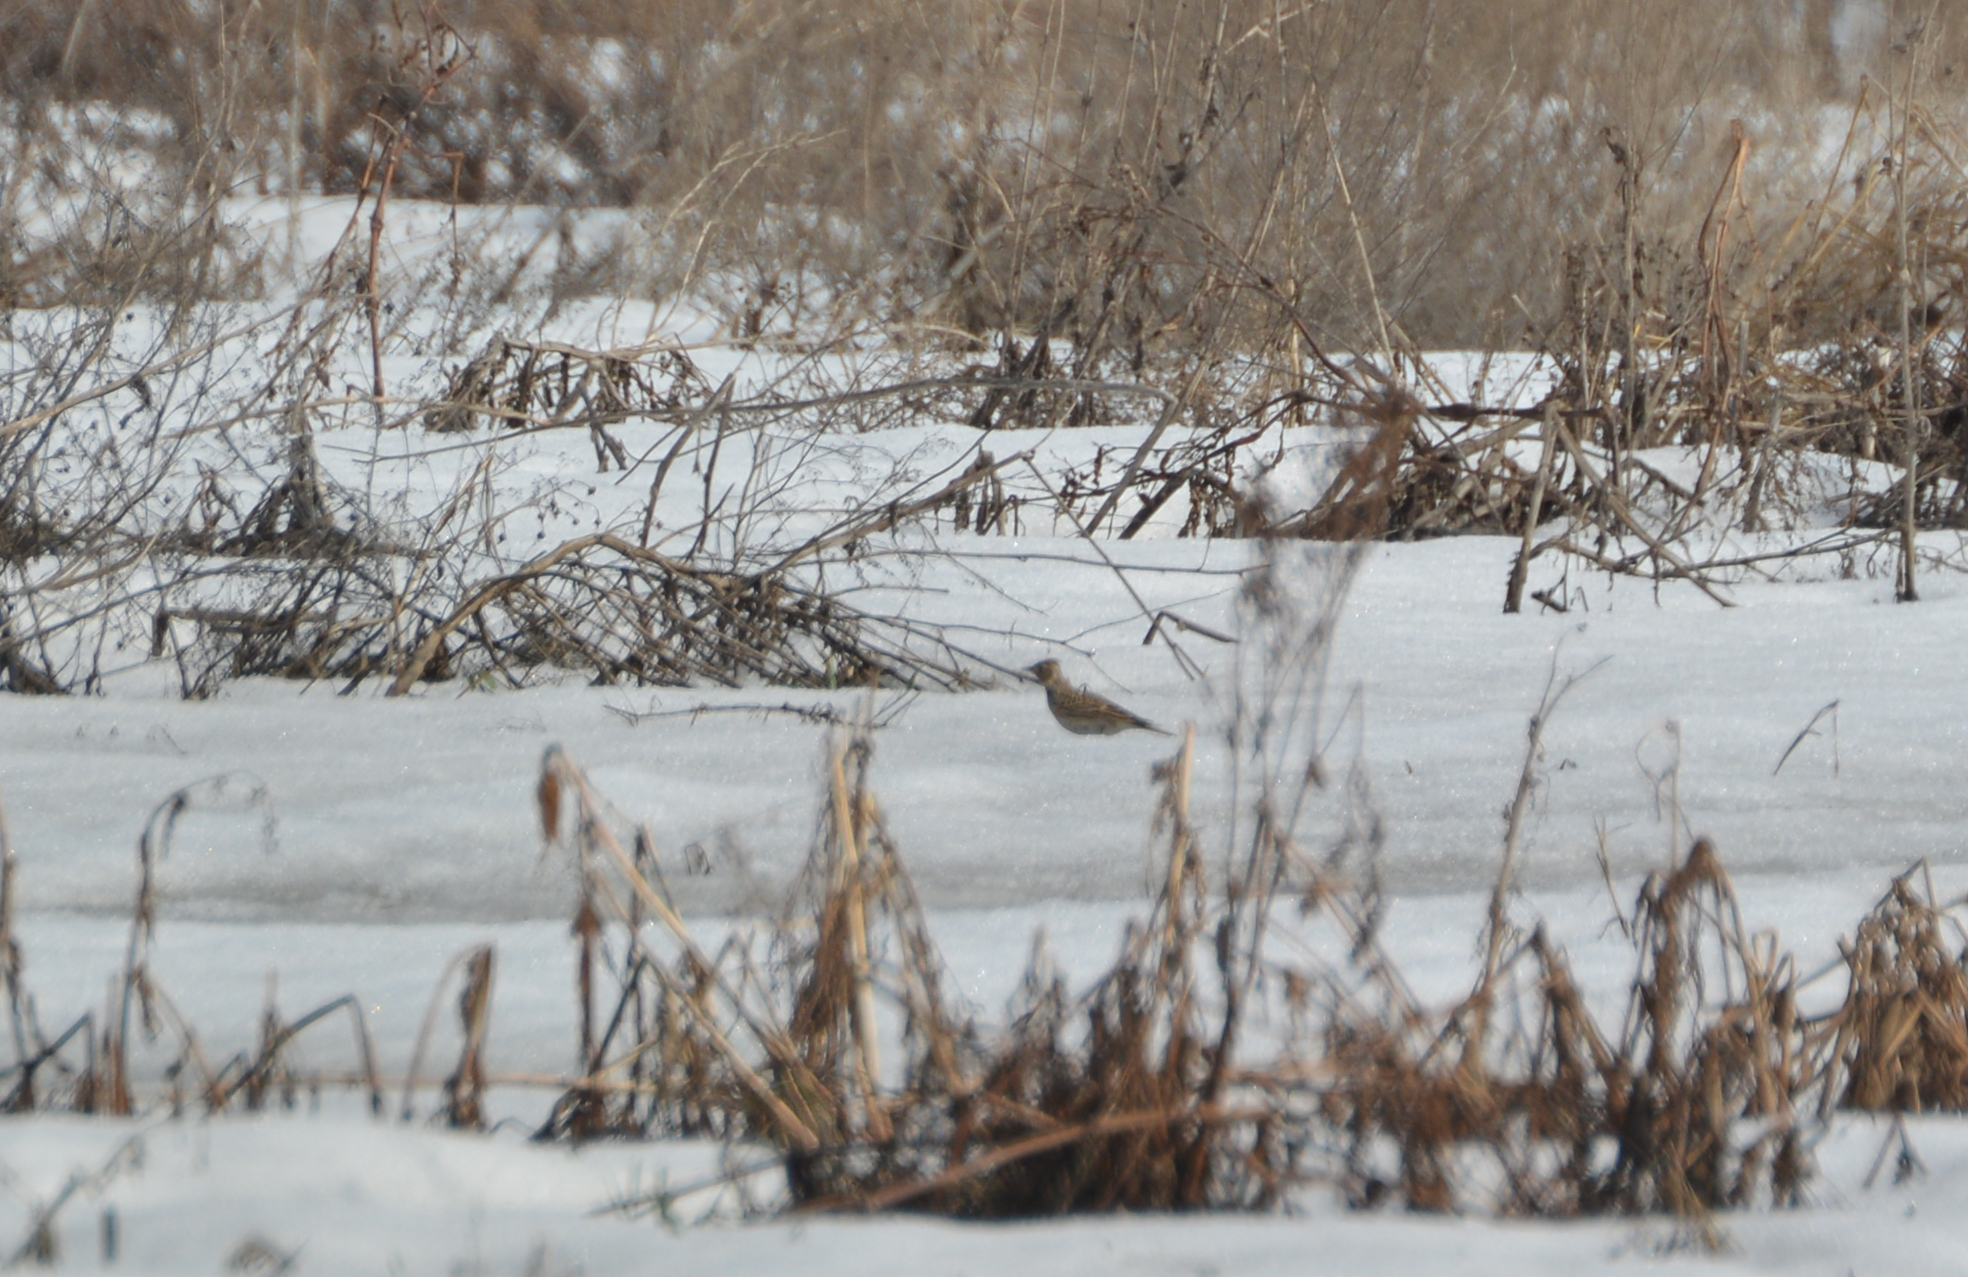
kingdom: Animalia
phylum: Chordata
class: Aves
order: Passeriformes
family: Alaudidae
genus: Alauda
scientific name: Alauda arvensis
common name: Eurasian skylark
